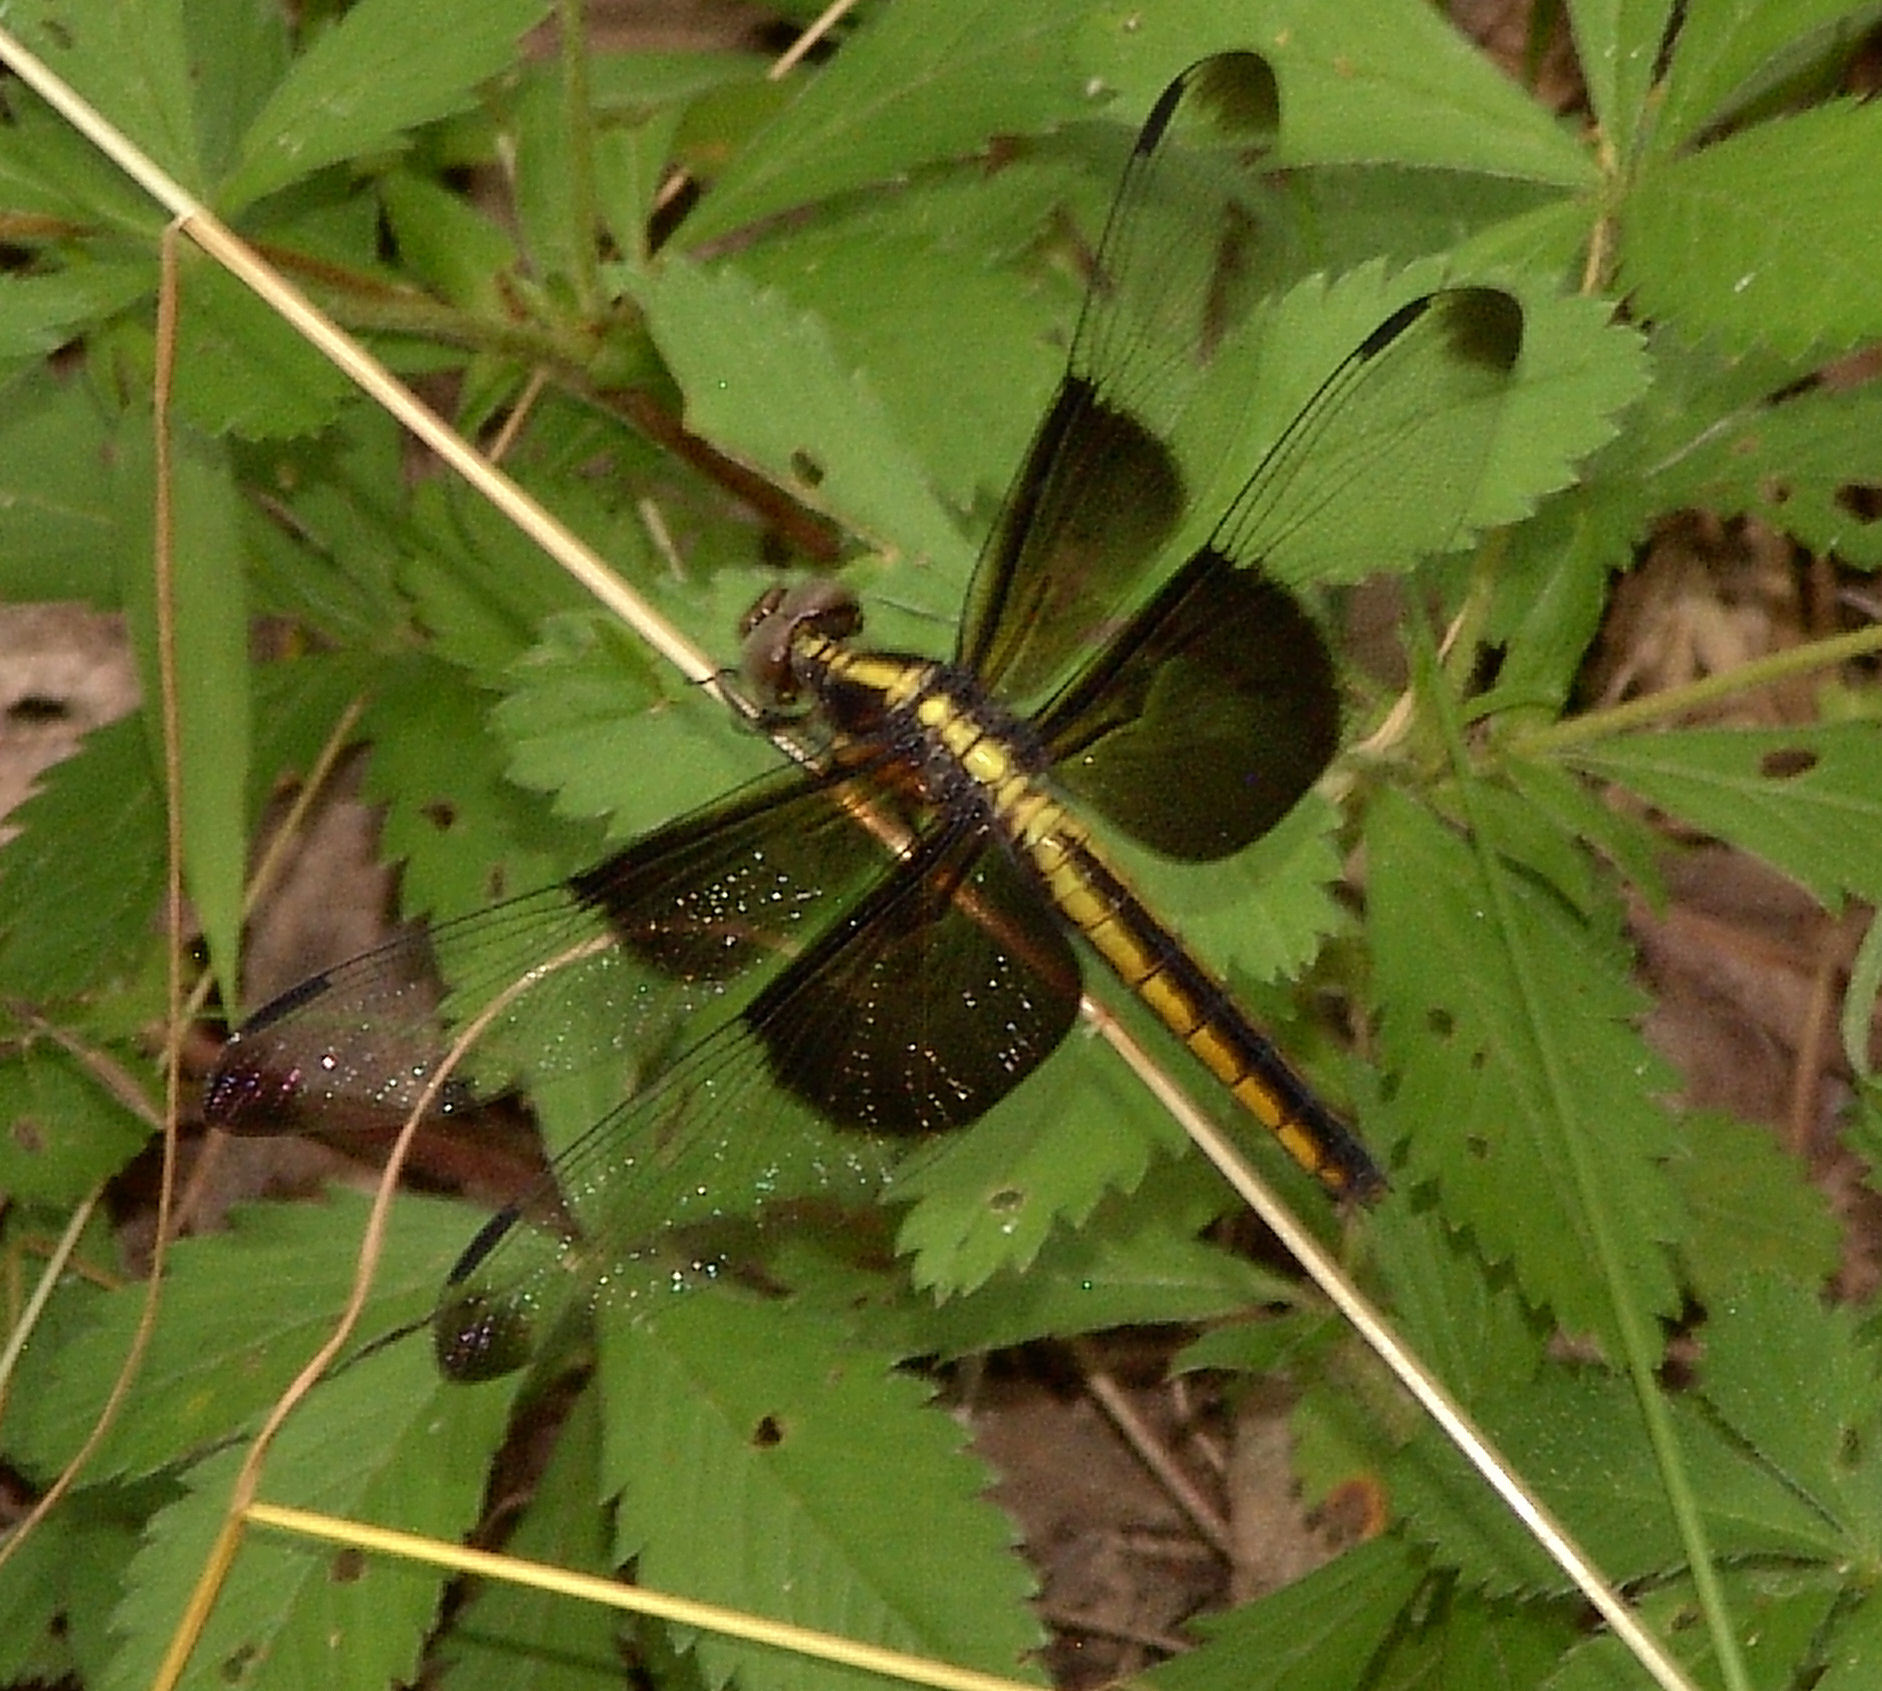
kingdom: Animalia
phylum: Arthropoda
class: Insecta
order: Odonata
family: Libellulidae
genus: Libellula
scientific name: Libellula luctuosa
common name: Widow skimmer
